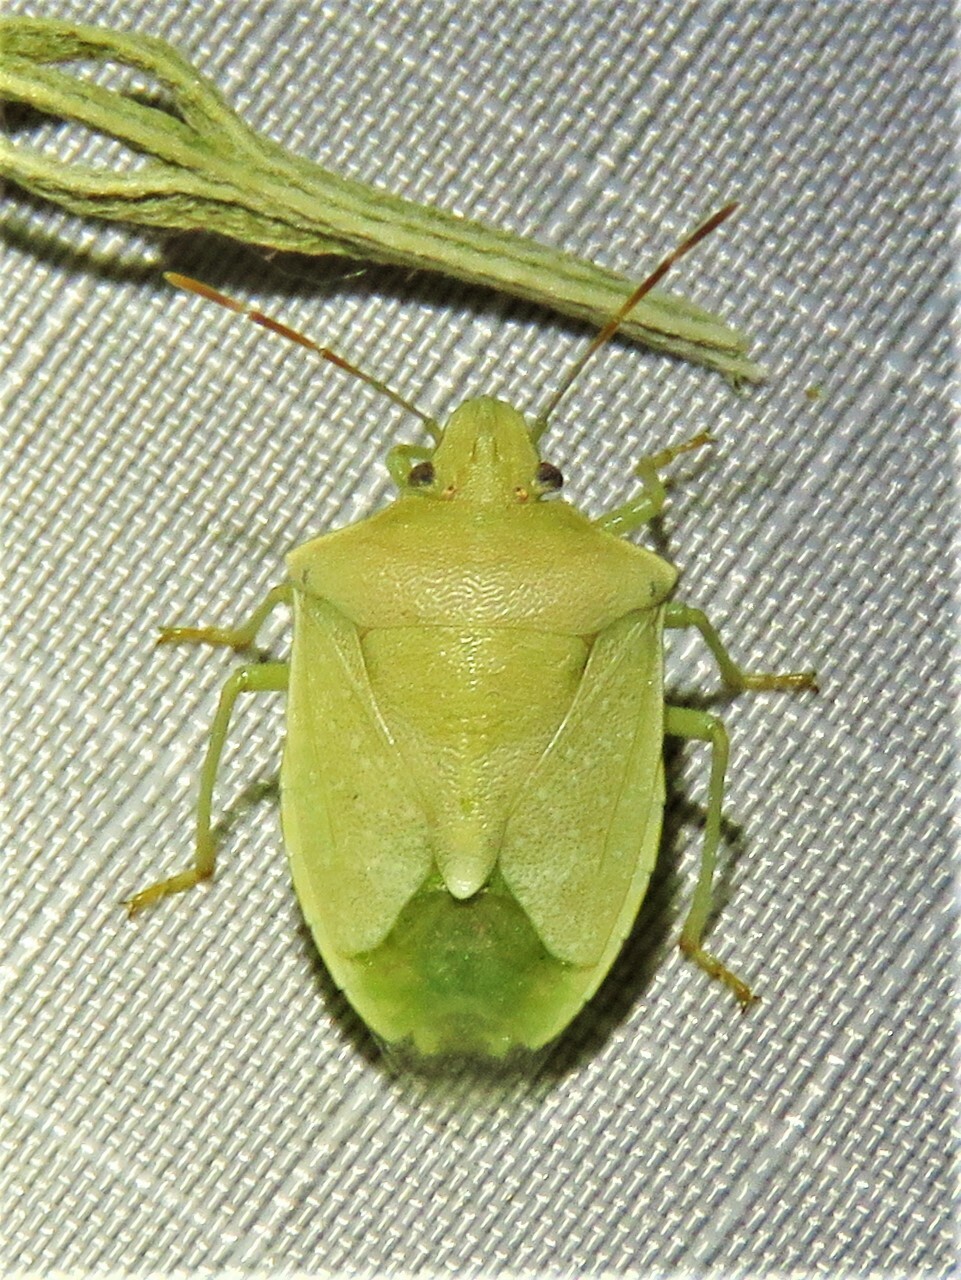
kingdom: Animalia
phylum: Arthropoda
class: Insecta
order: Hemiptera
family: Pentatomidae
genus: Thyanta
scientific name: Thyanta custator
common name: Stink bug
